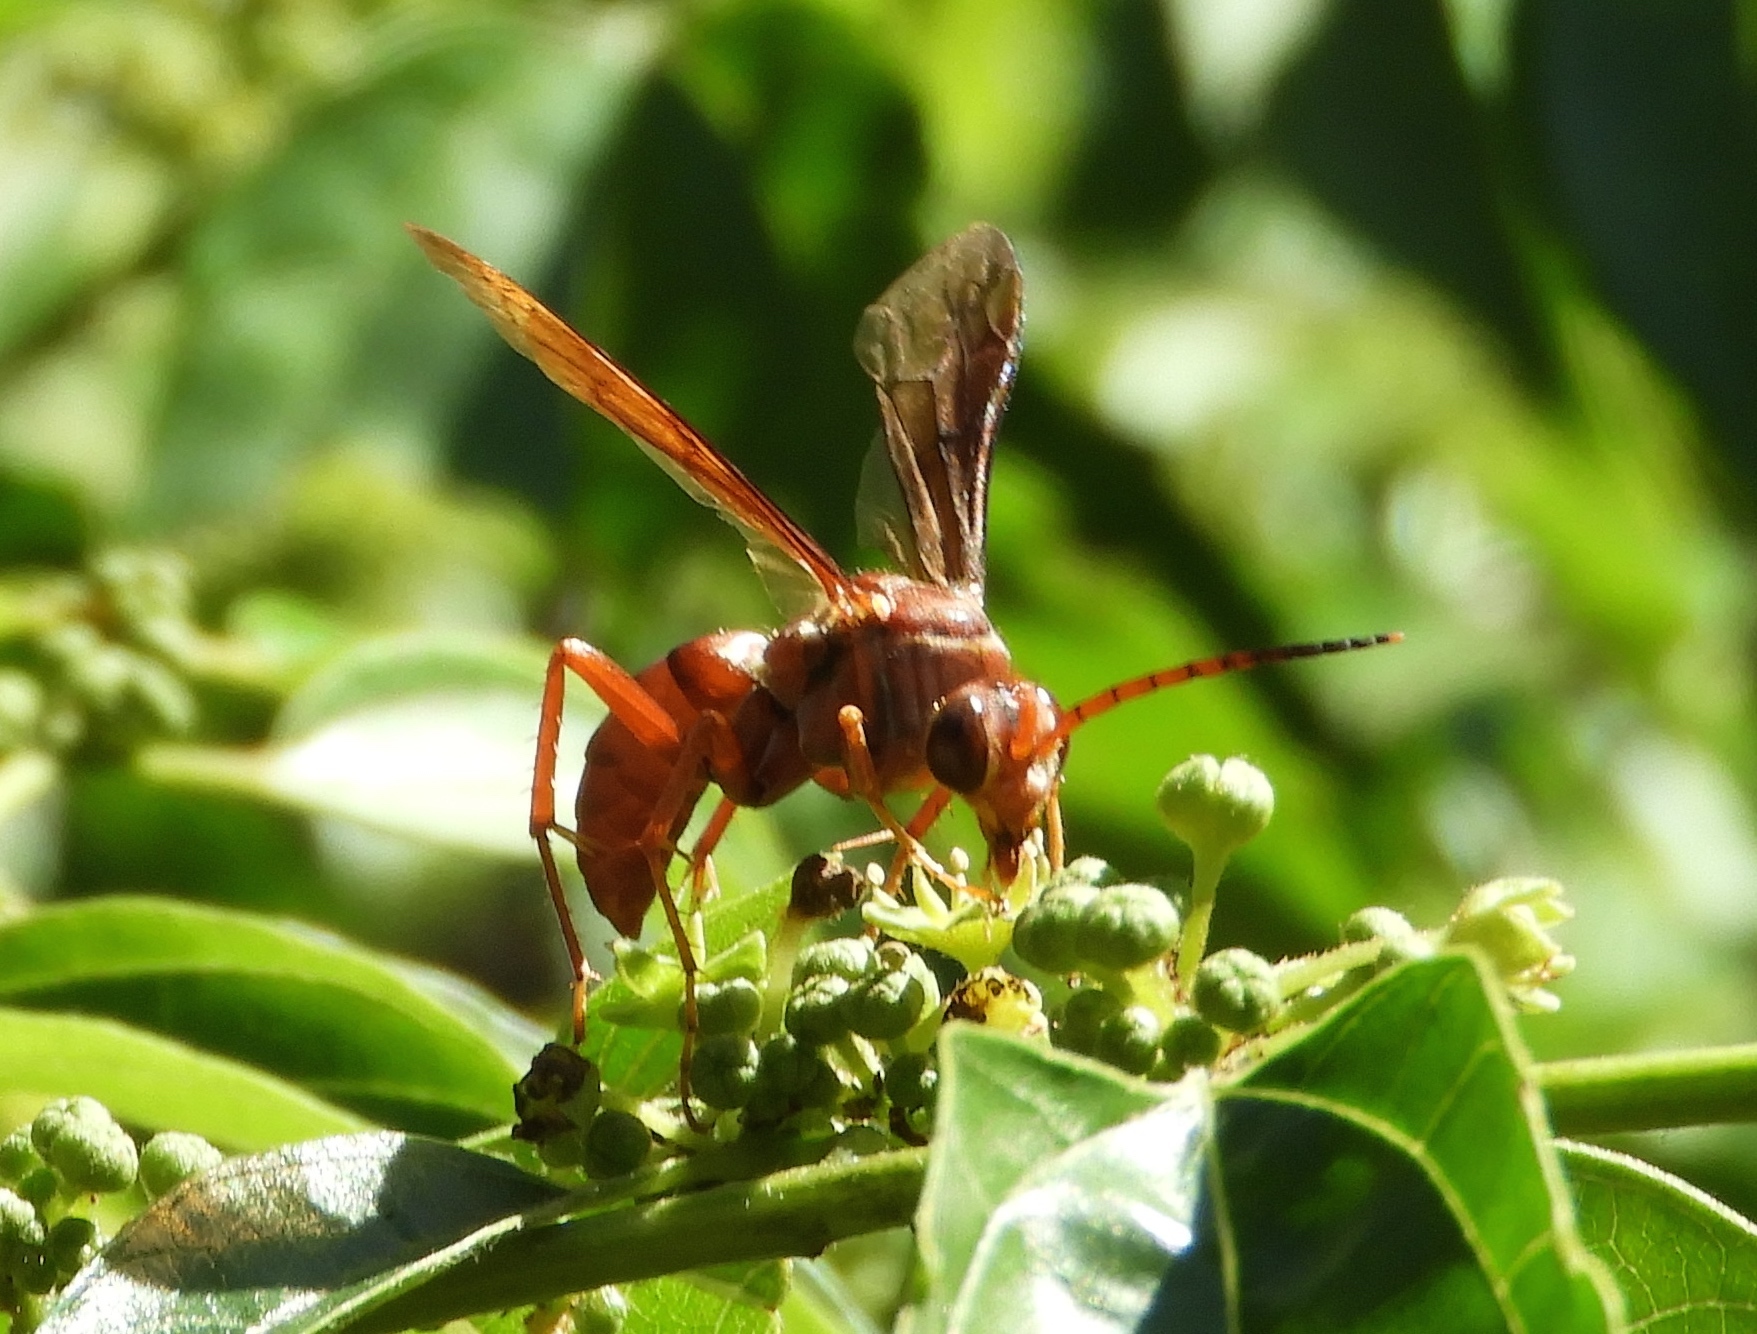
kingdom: Animalia
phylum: Arthropoda
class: Insecta
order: Hymenoptera
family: Pompilidae
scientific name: Pompilidae
